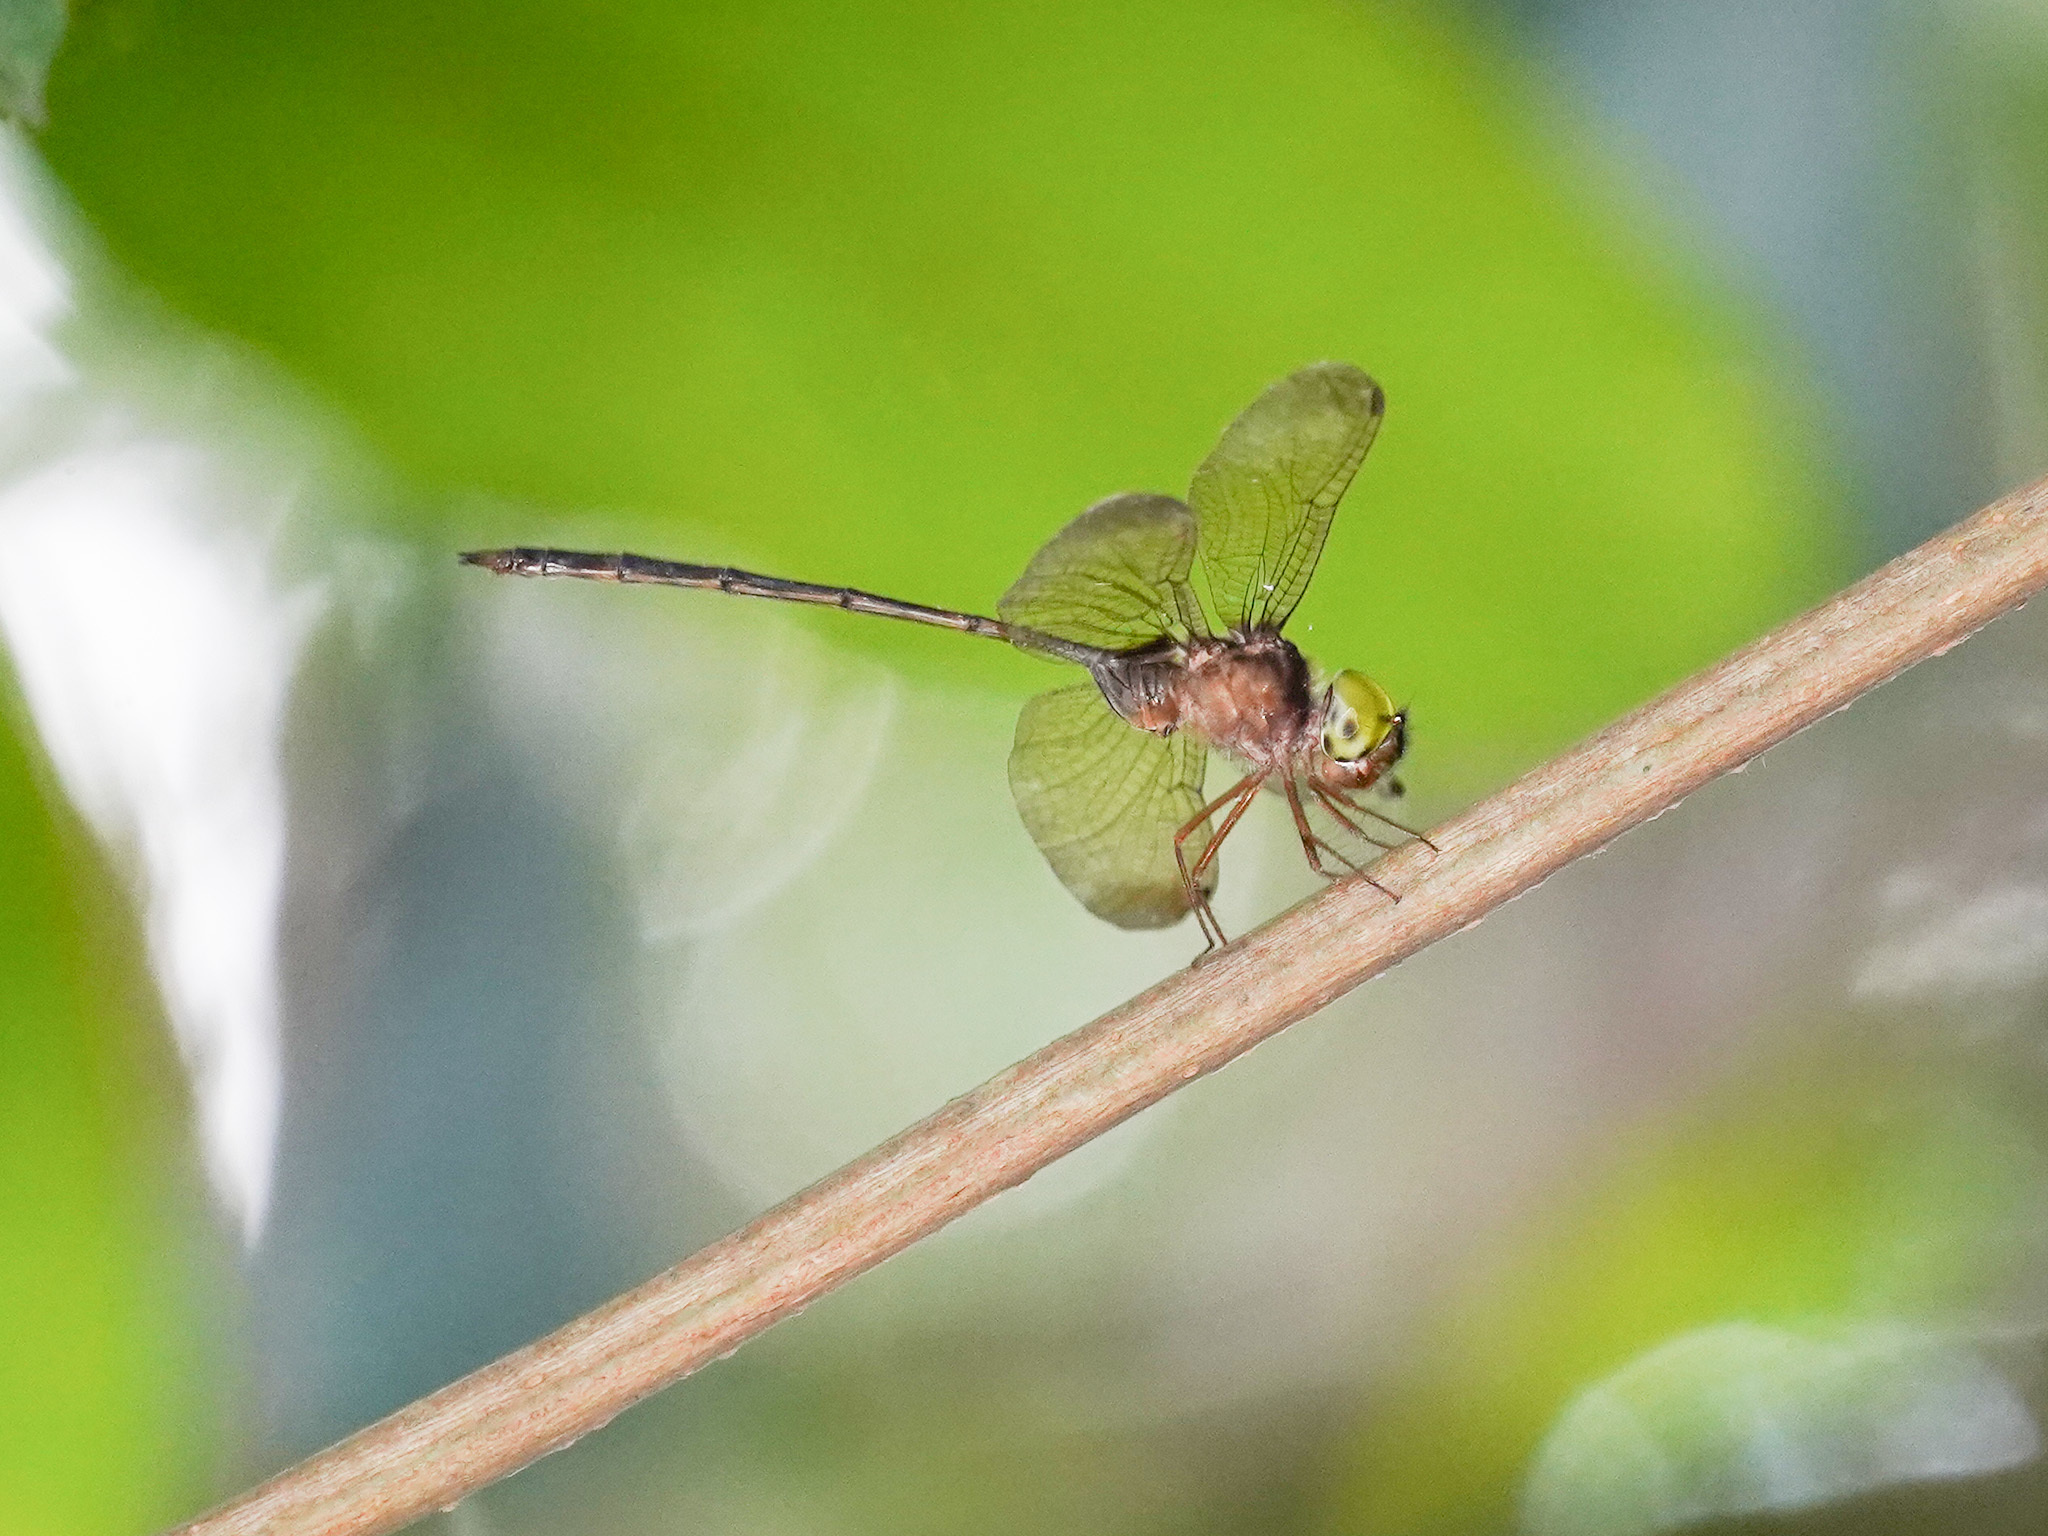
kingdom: Animalia
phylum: Arthropoda
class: Insecta
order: Odonata
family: Libellulidae
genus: Zyxomma
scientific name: Zyxomma petiolatum
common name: Dingy dusk-darter
